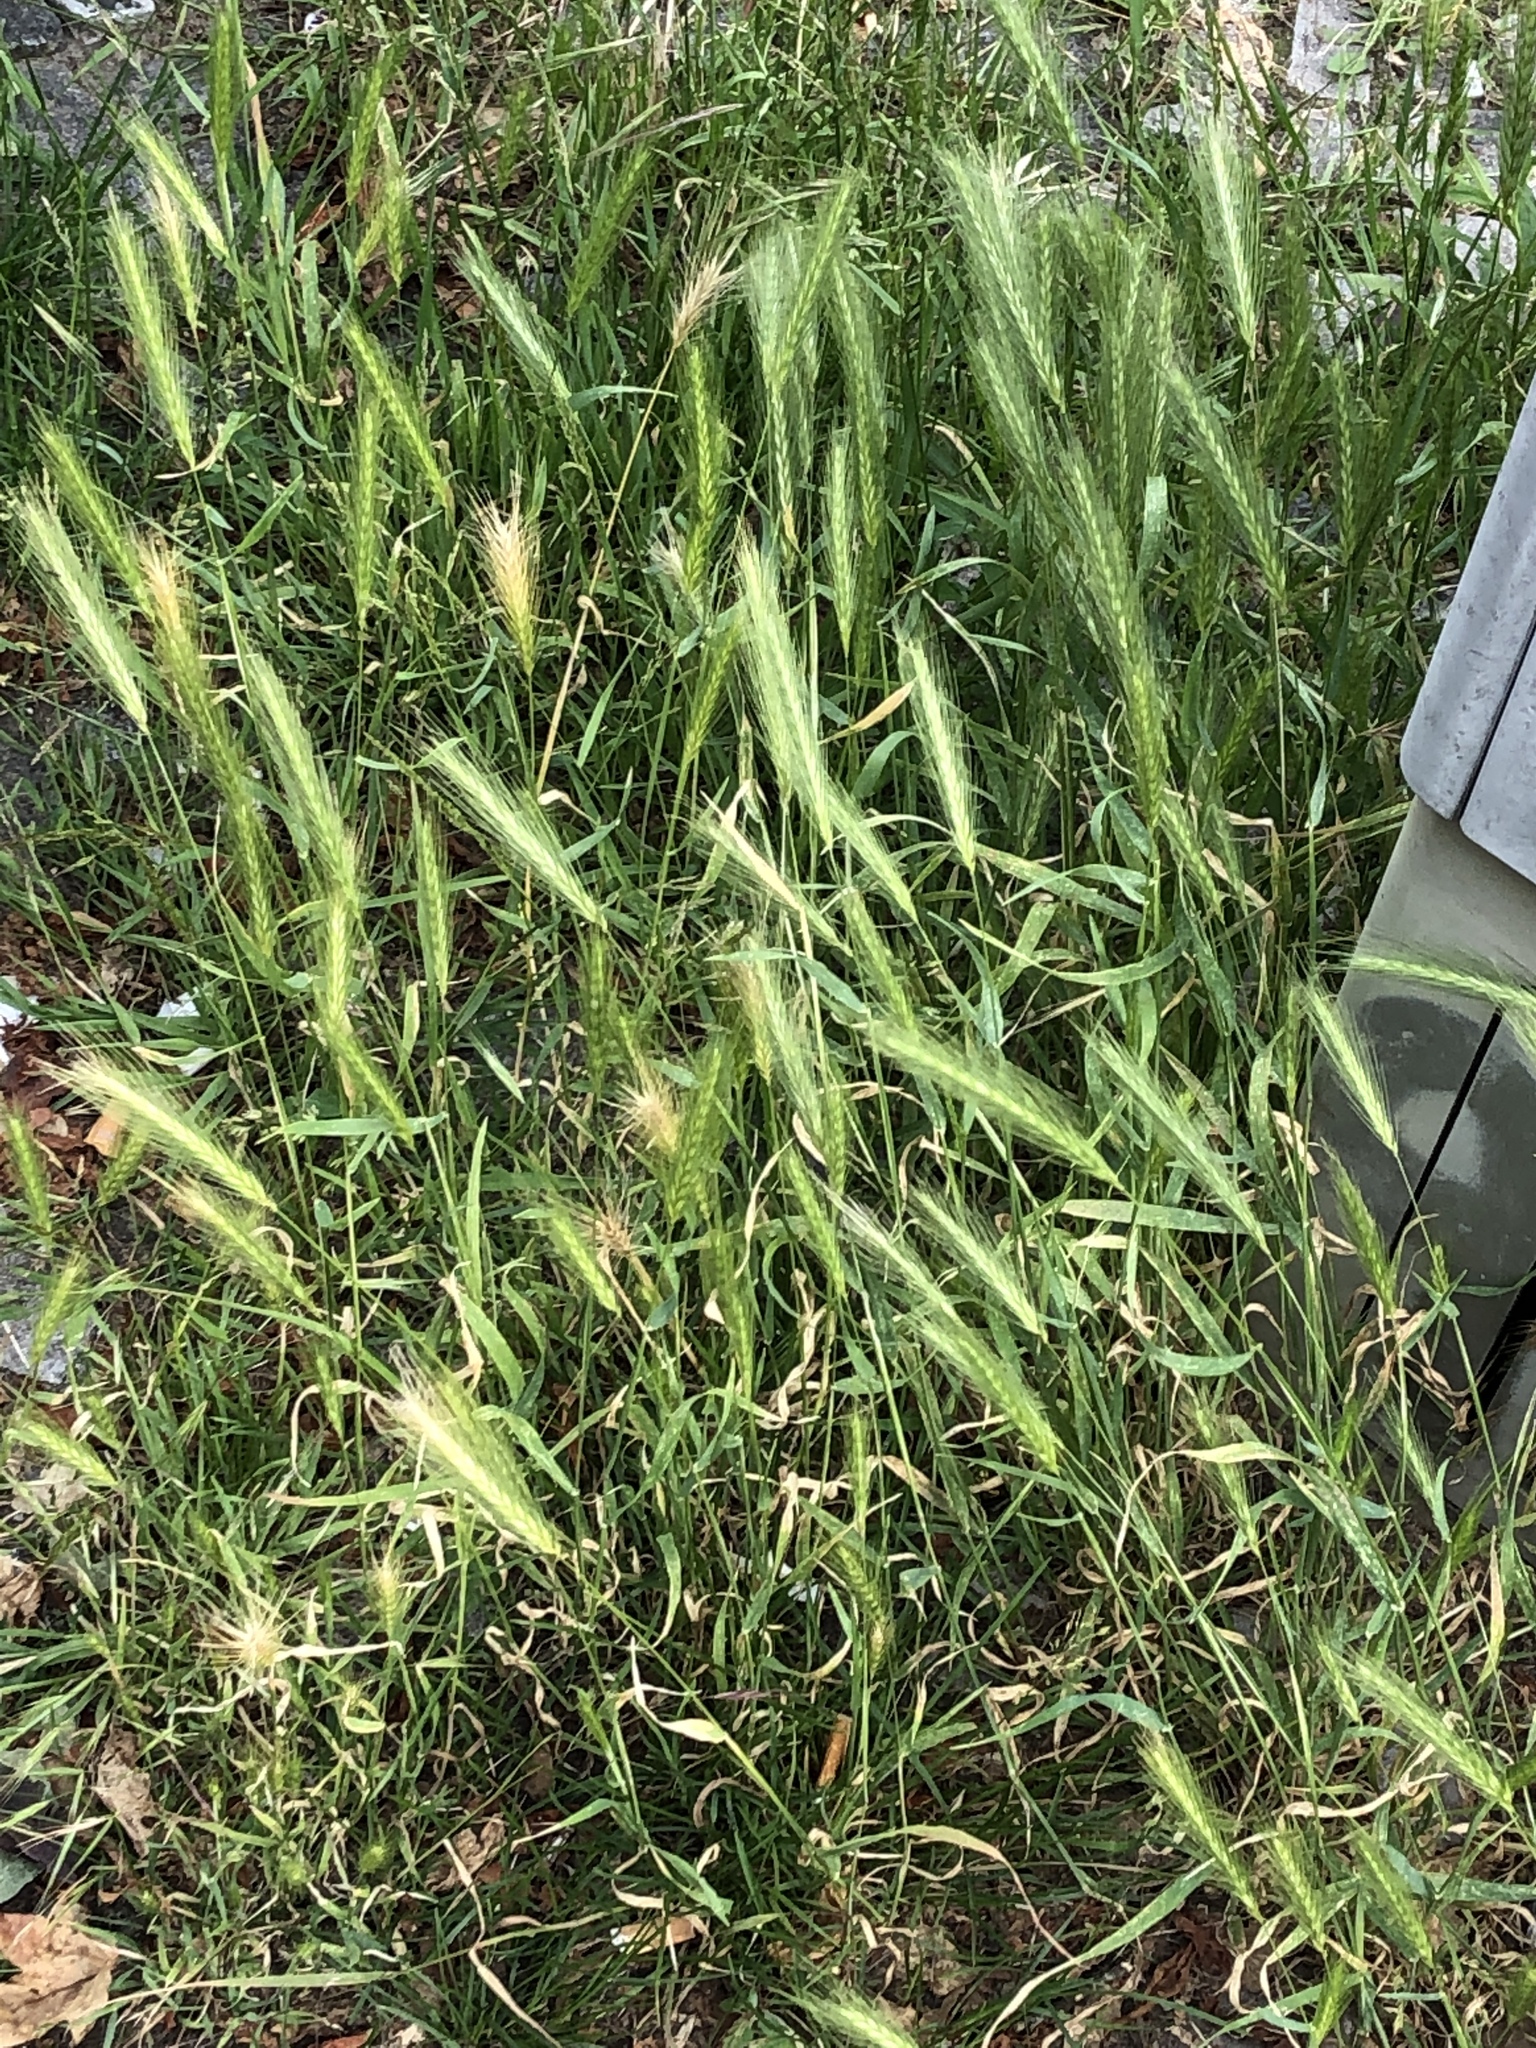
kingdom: Plantae
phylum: Tracheophyta
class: Liliopsida
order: Poales
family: Poaceae
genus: Hordeum
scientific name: Hordeum murinum
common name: Wall barley
